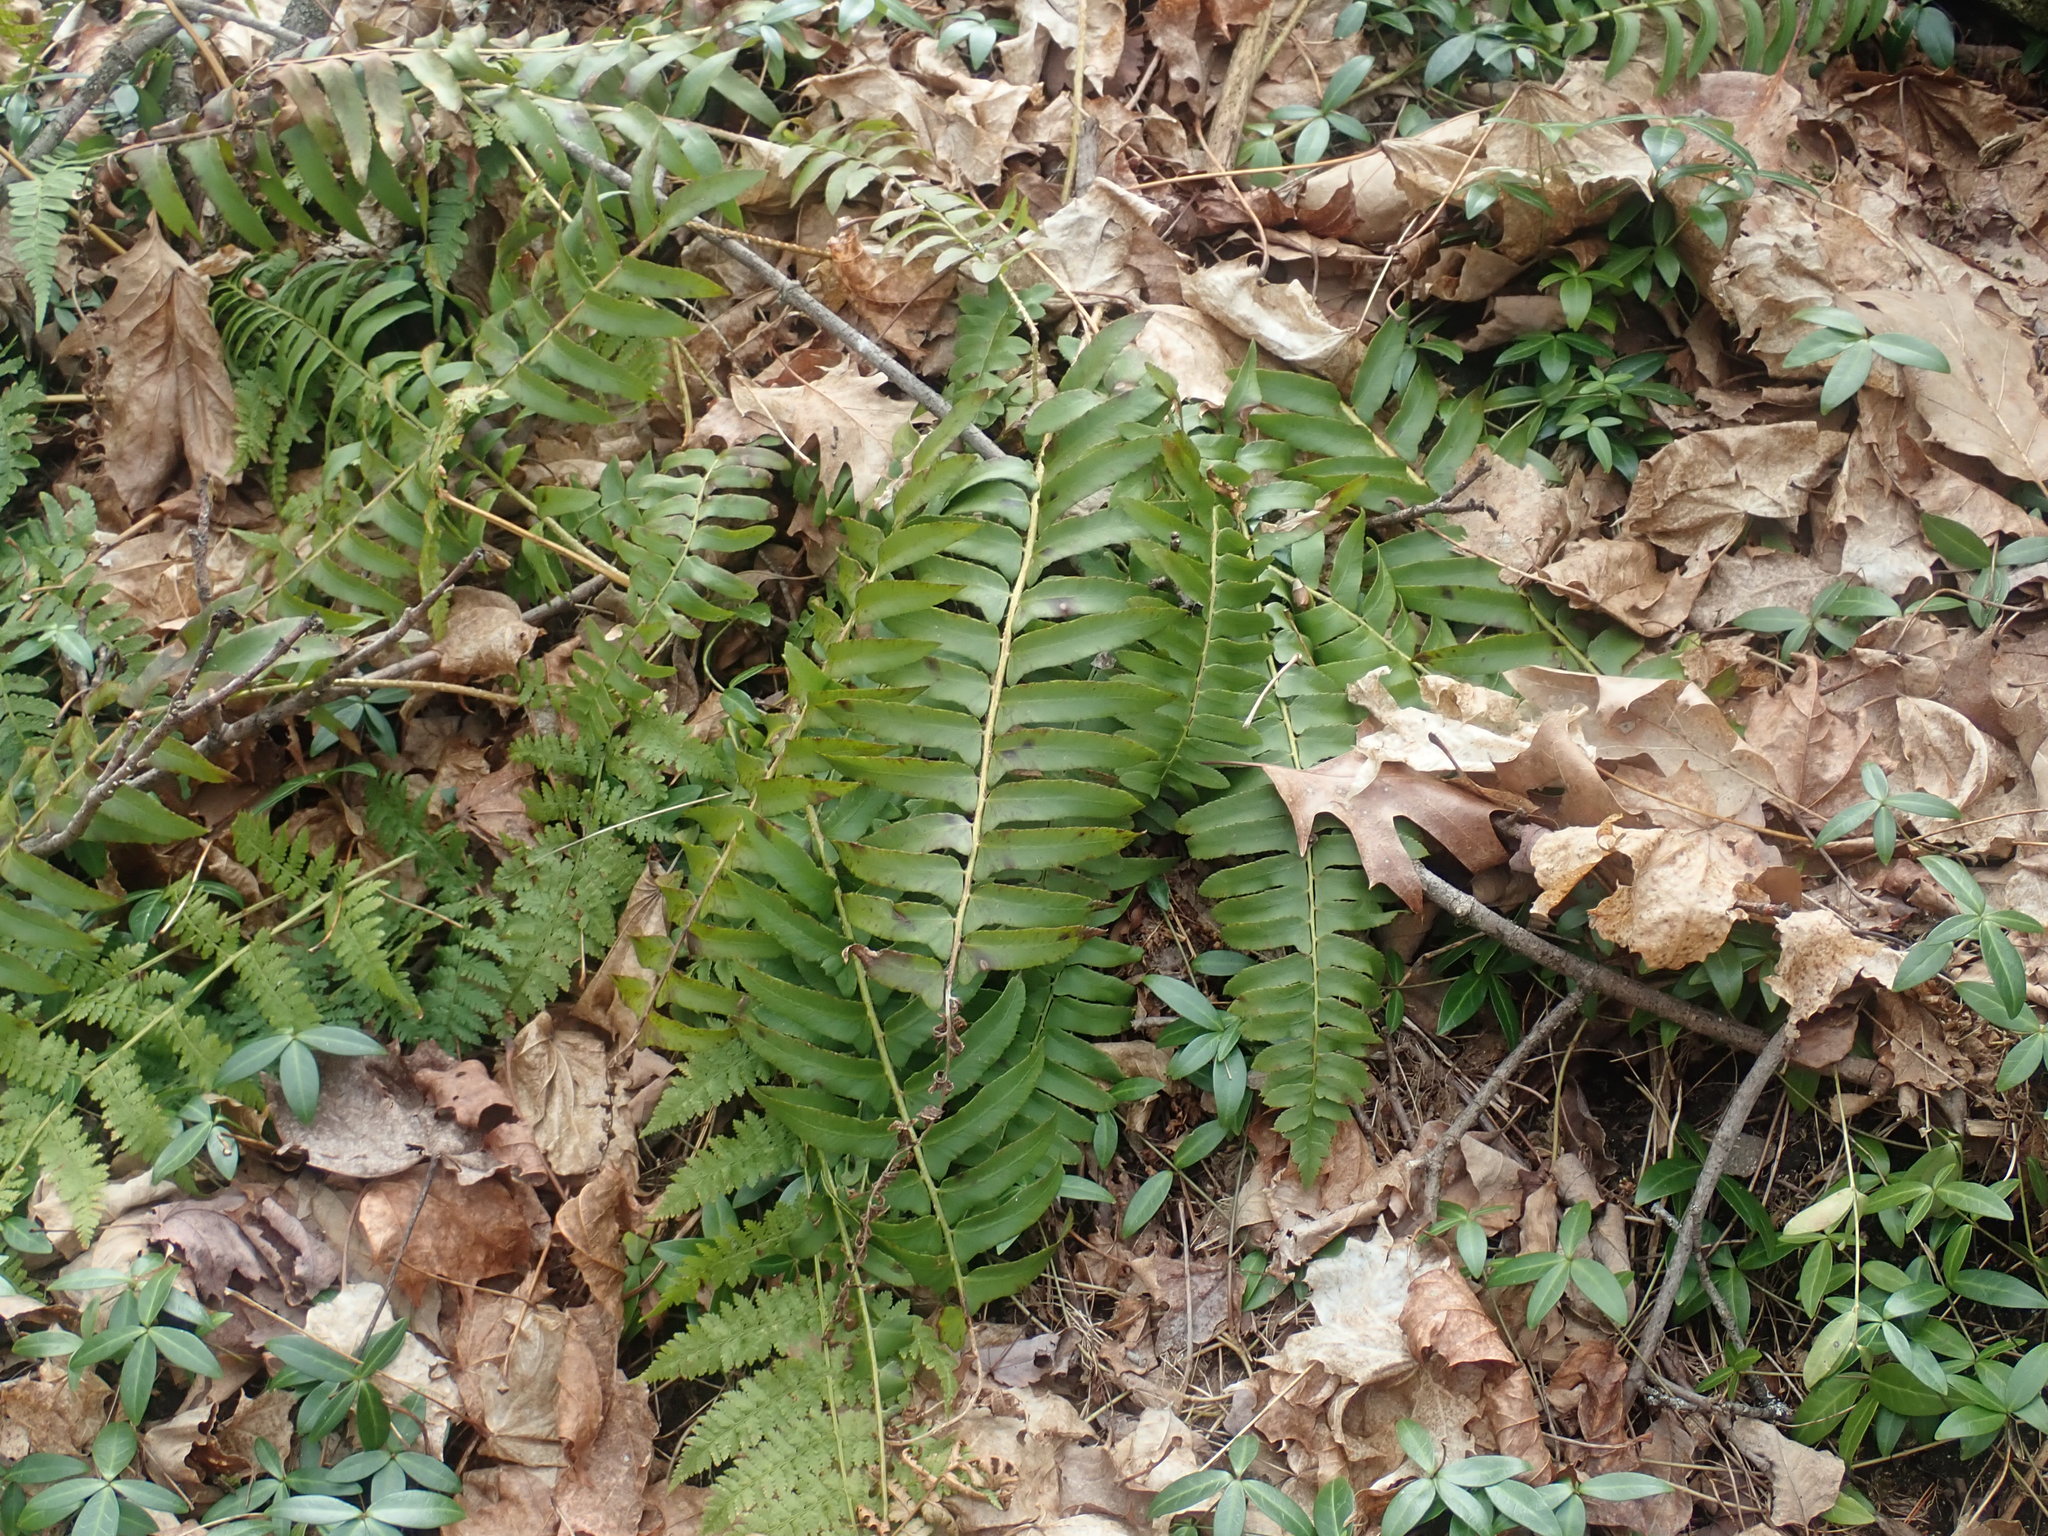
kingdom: Plantae
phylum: Tracheophyta
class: Polypodiopsida
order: Polypodiales
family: Dryopteridaceae
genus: Polystichum
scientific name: Polystichum acrostichoides
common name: Christmas fern
